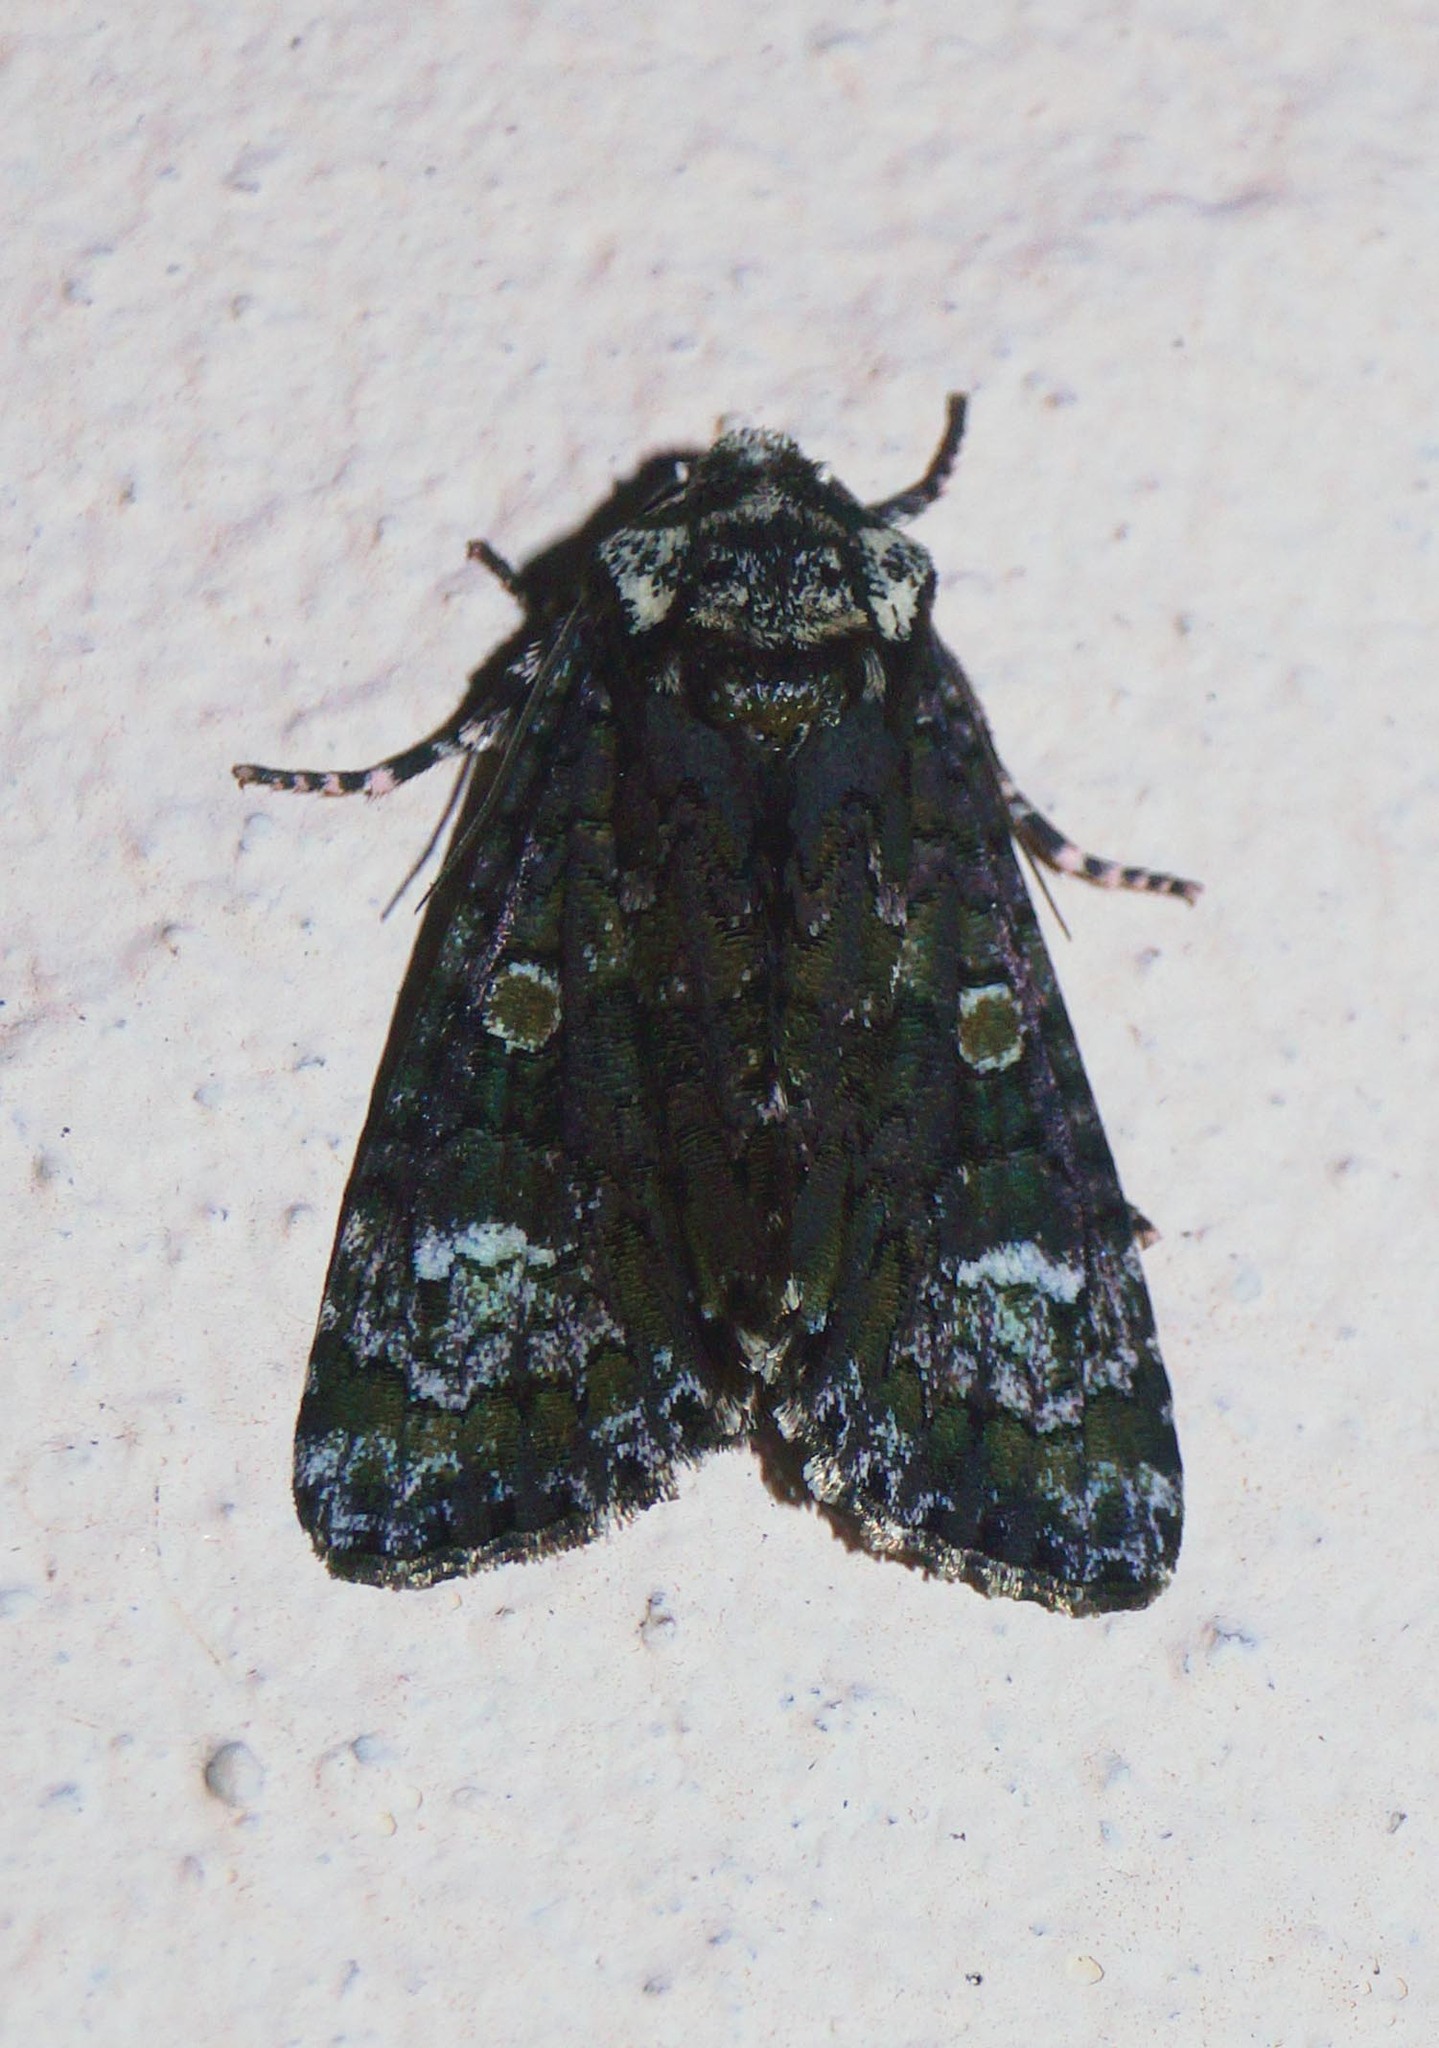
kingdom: Animalia
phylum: Arthropoda
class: Insecta
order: Lepidoptera
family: Noctuidae
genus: Craniophora
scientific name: Craniophora ligustri
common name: Coronet
